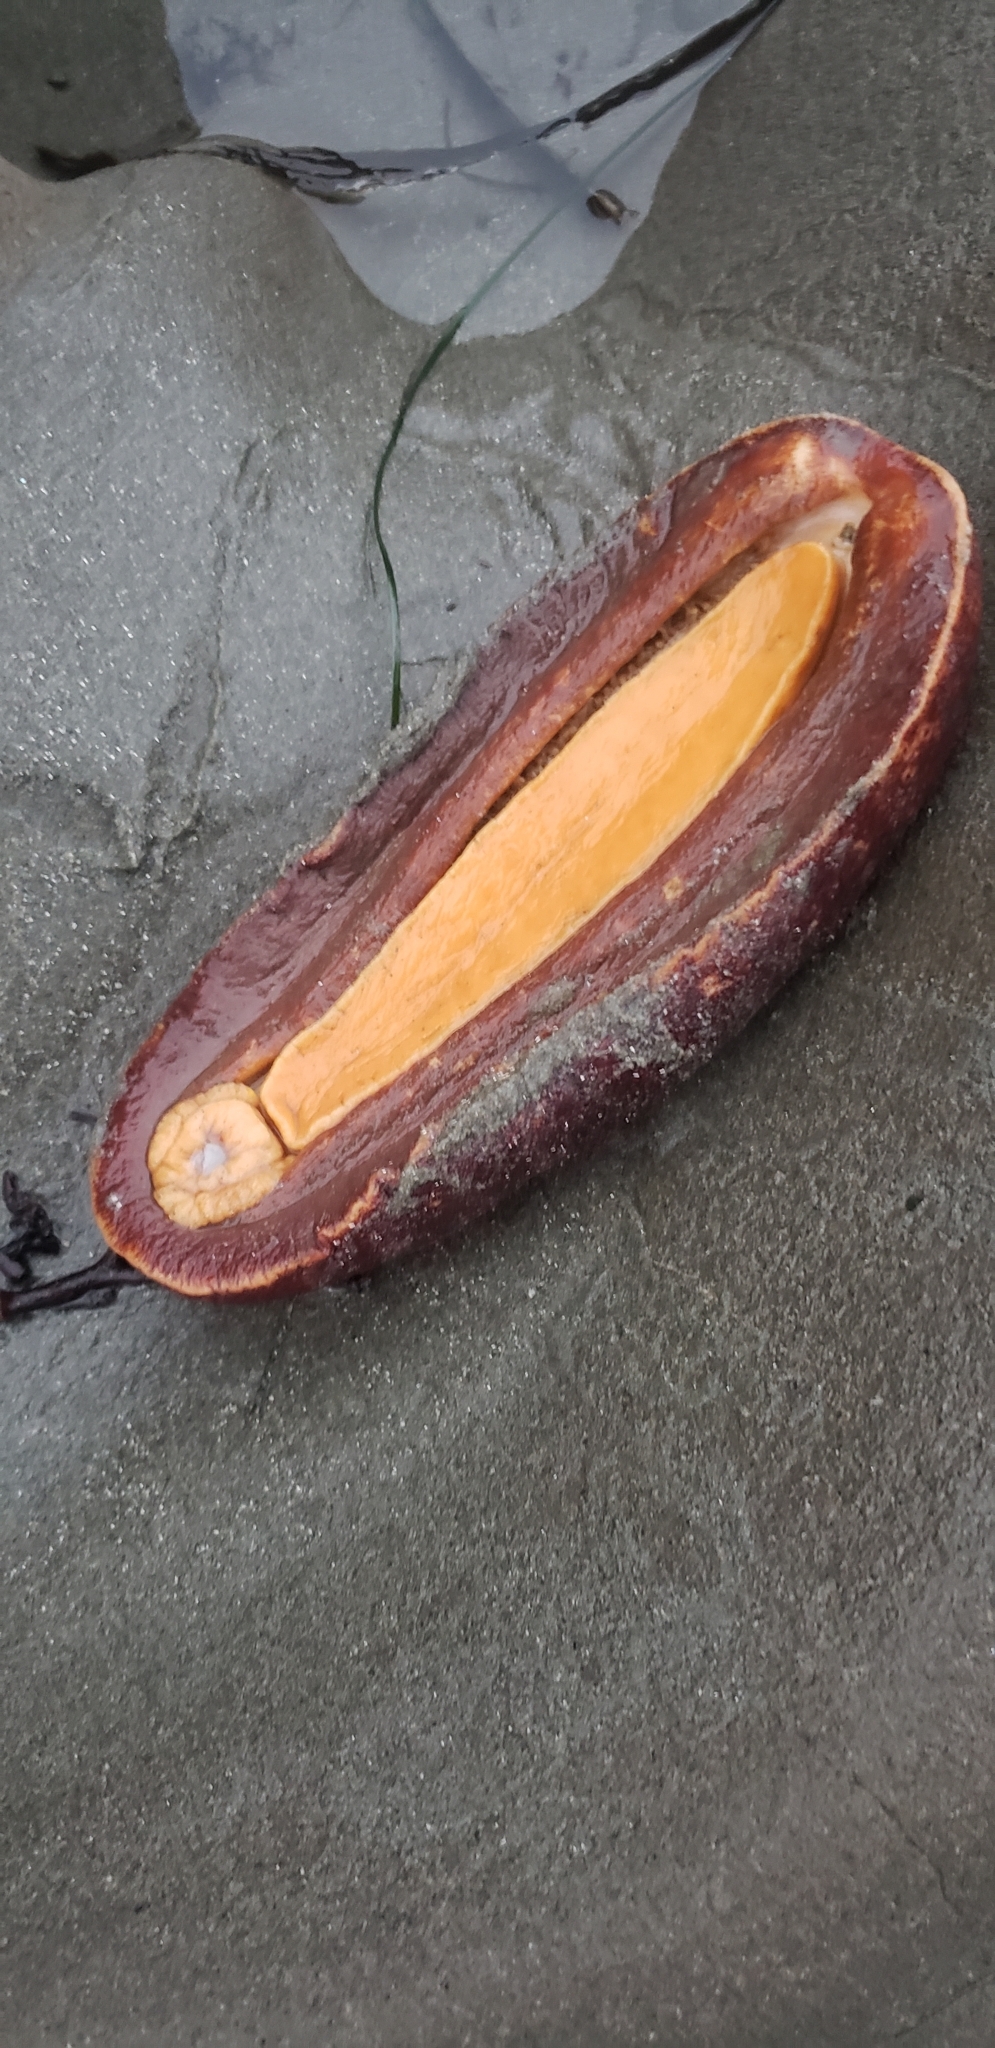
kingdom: Animalia
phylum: Mollusca
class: Polyplacophora
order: Chitonida
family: Acanthochitonidae
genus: Cryptochiton
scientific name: Cryptochiton stelleri
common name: Giant pacific chiton
